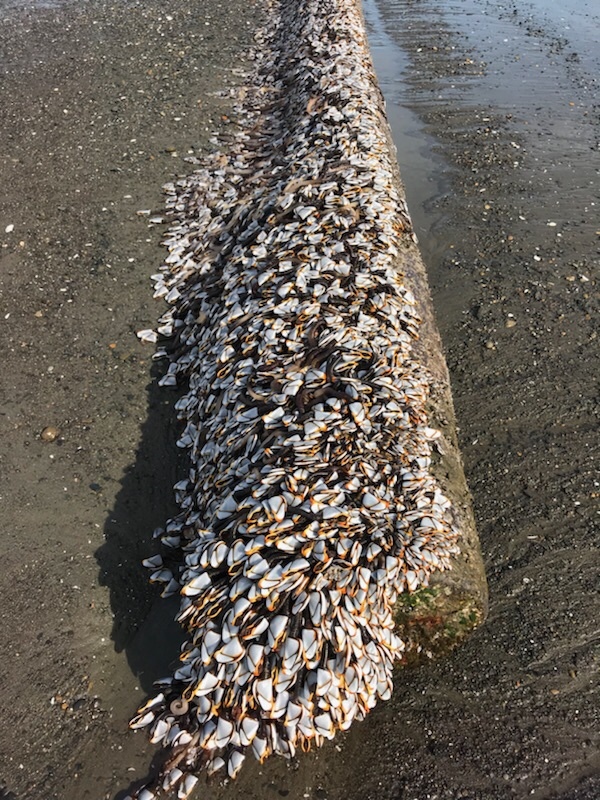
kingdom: Animalia
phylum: Arthropoda
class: Maxillopoda
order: Pedunculata
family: Lepadidae
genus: Lepas
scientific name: Lepas anatifera
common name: Common goose barnacle
